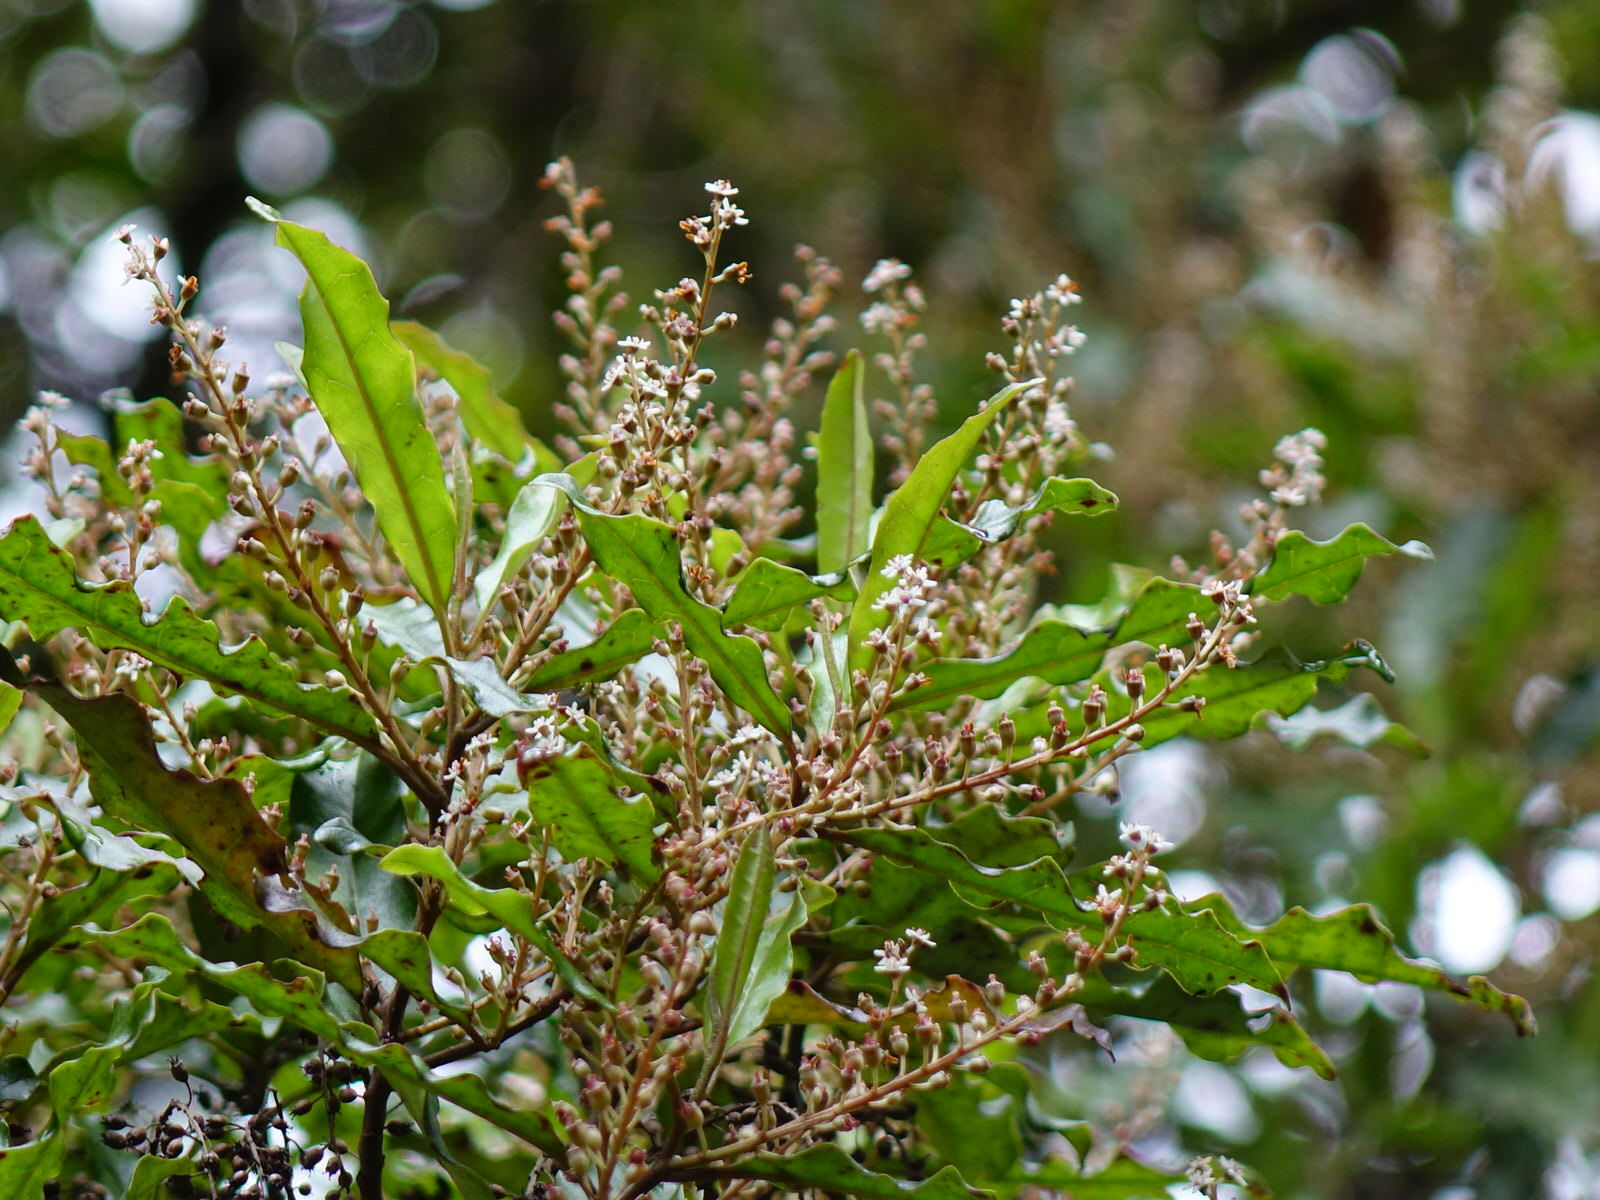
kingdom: Plantae
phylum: Tracheophyta
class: Magnoliopsida
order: Paracryphiales
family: Paracryphiaceae
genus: Quintinia
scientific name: Quintinia serrata
